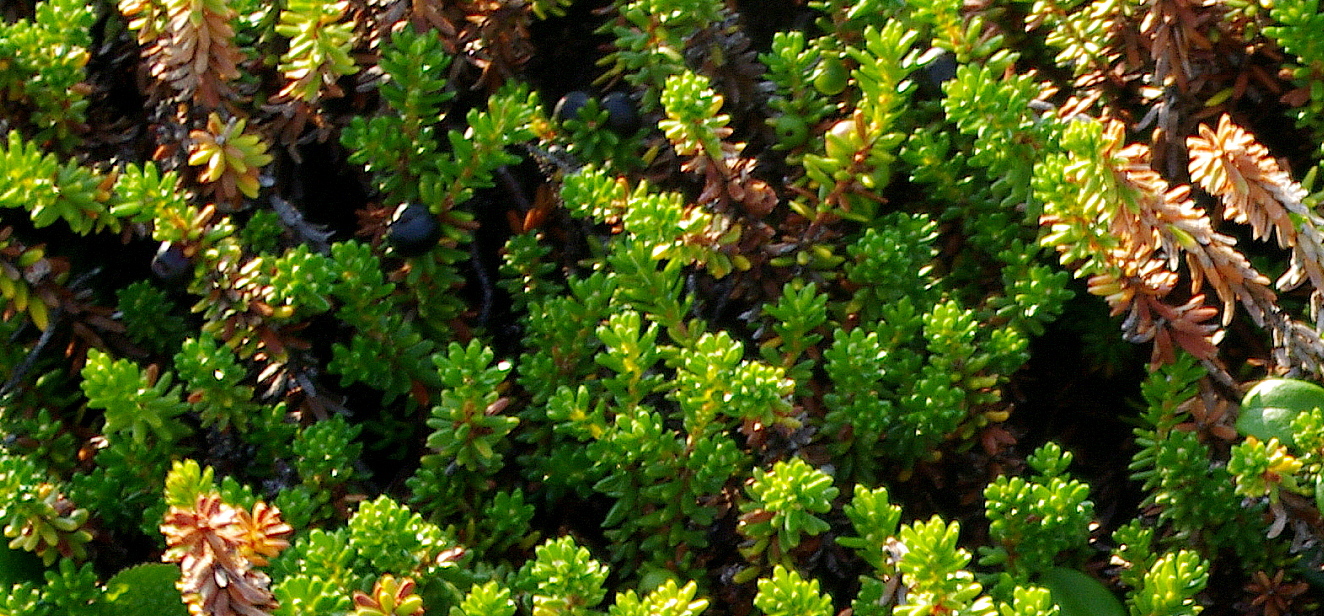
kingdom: Plantae
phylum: Tracheophyta
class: Magnoliopsida
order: Ericales
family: Ericaceae
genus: Empetrum
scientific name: Empetrum nigrum
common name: Black crowberry
